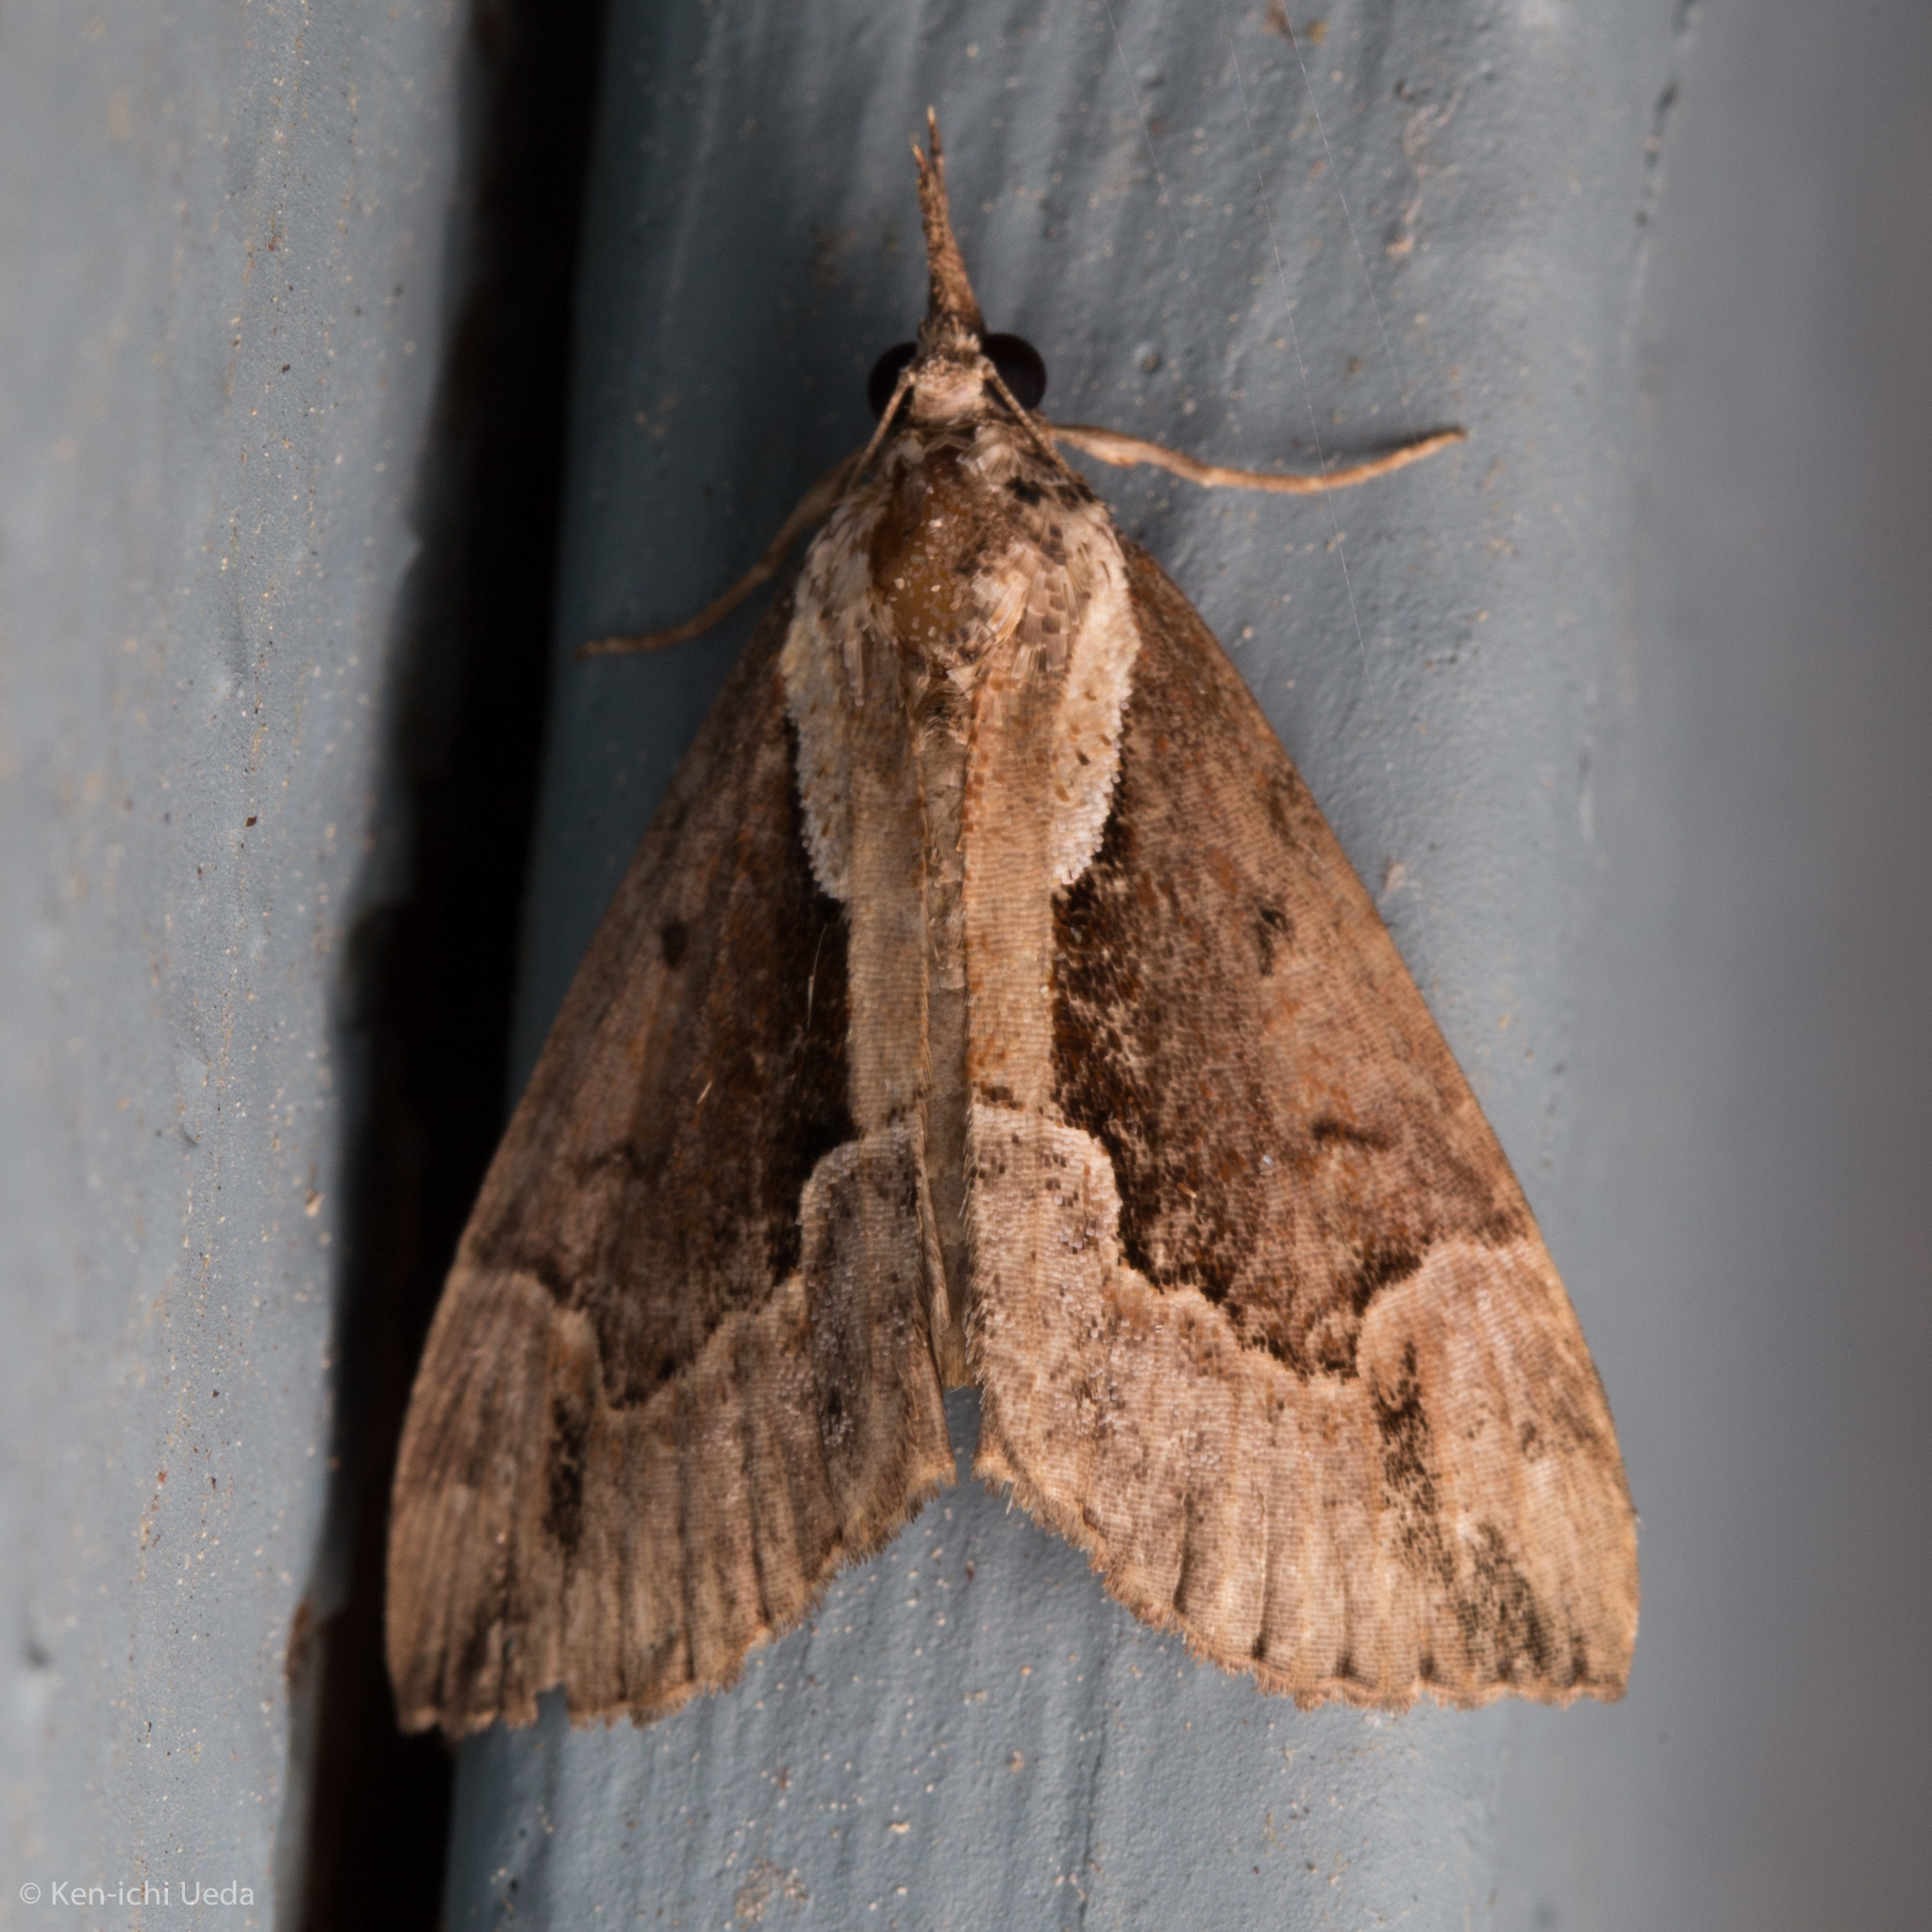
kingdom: Animalia
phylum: Arthropoda
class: Insecta
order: Lepidoptera
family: Erebidae
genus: Hypena
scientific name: Hypena baltimoralis
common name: Baltimore snout
